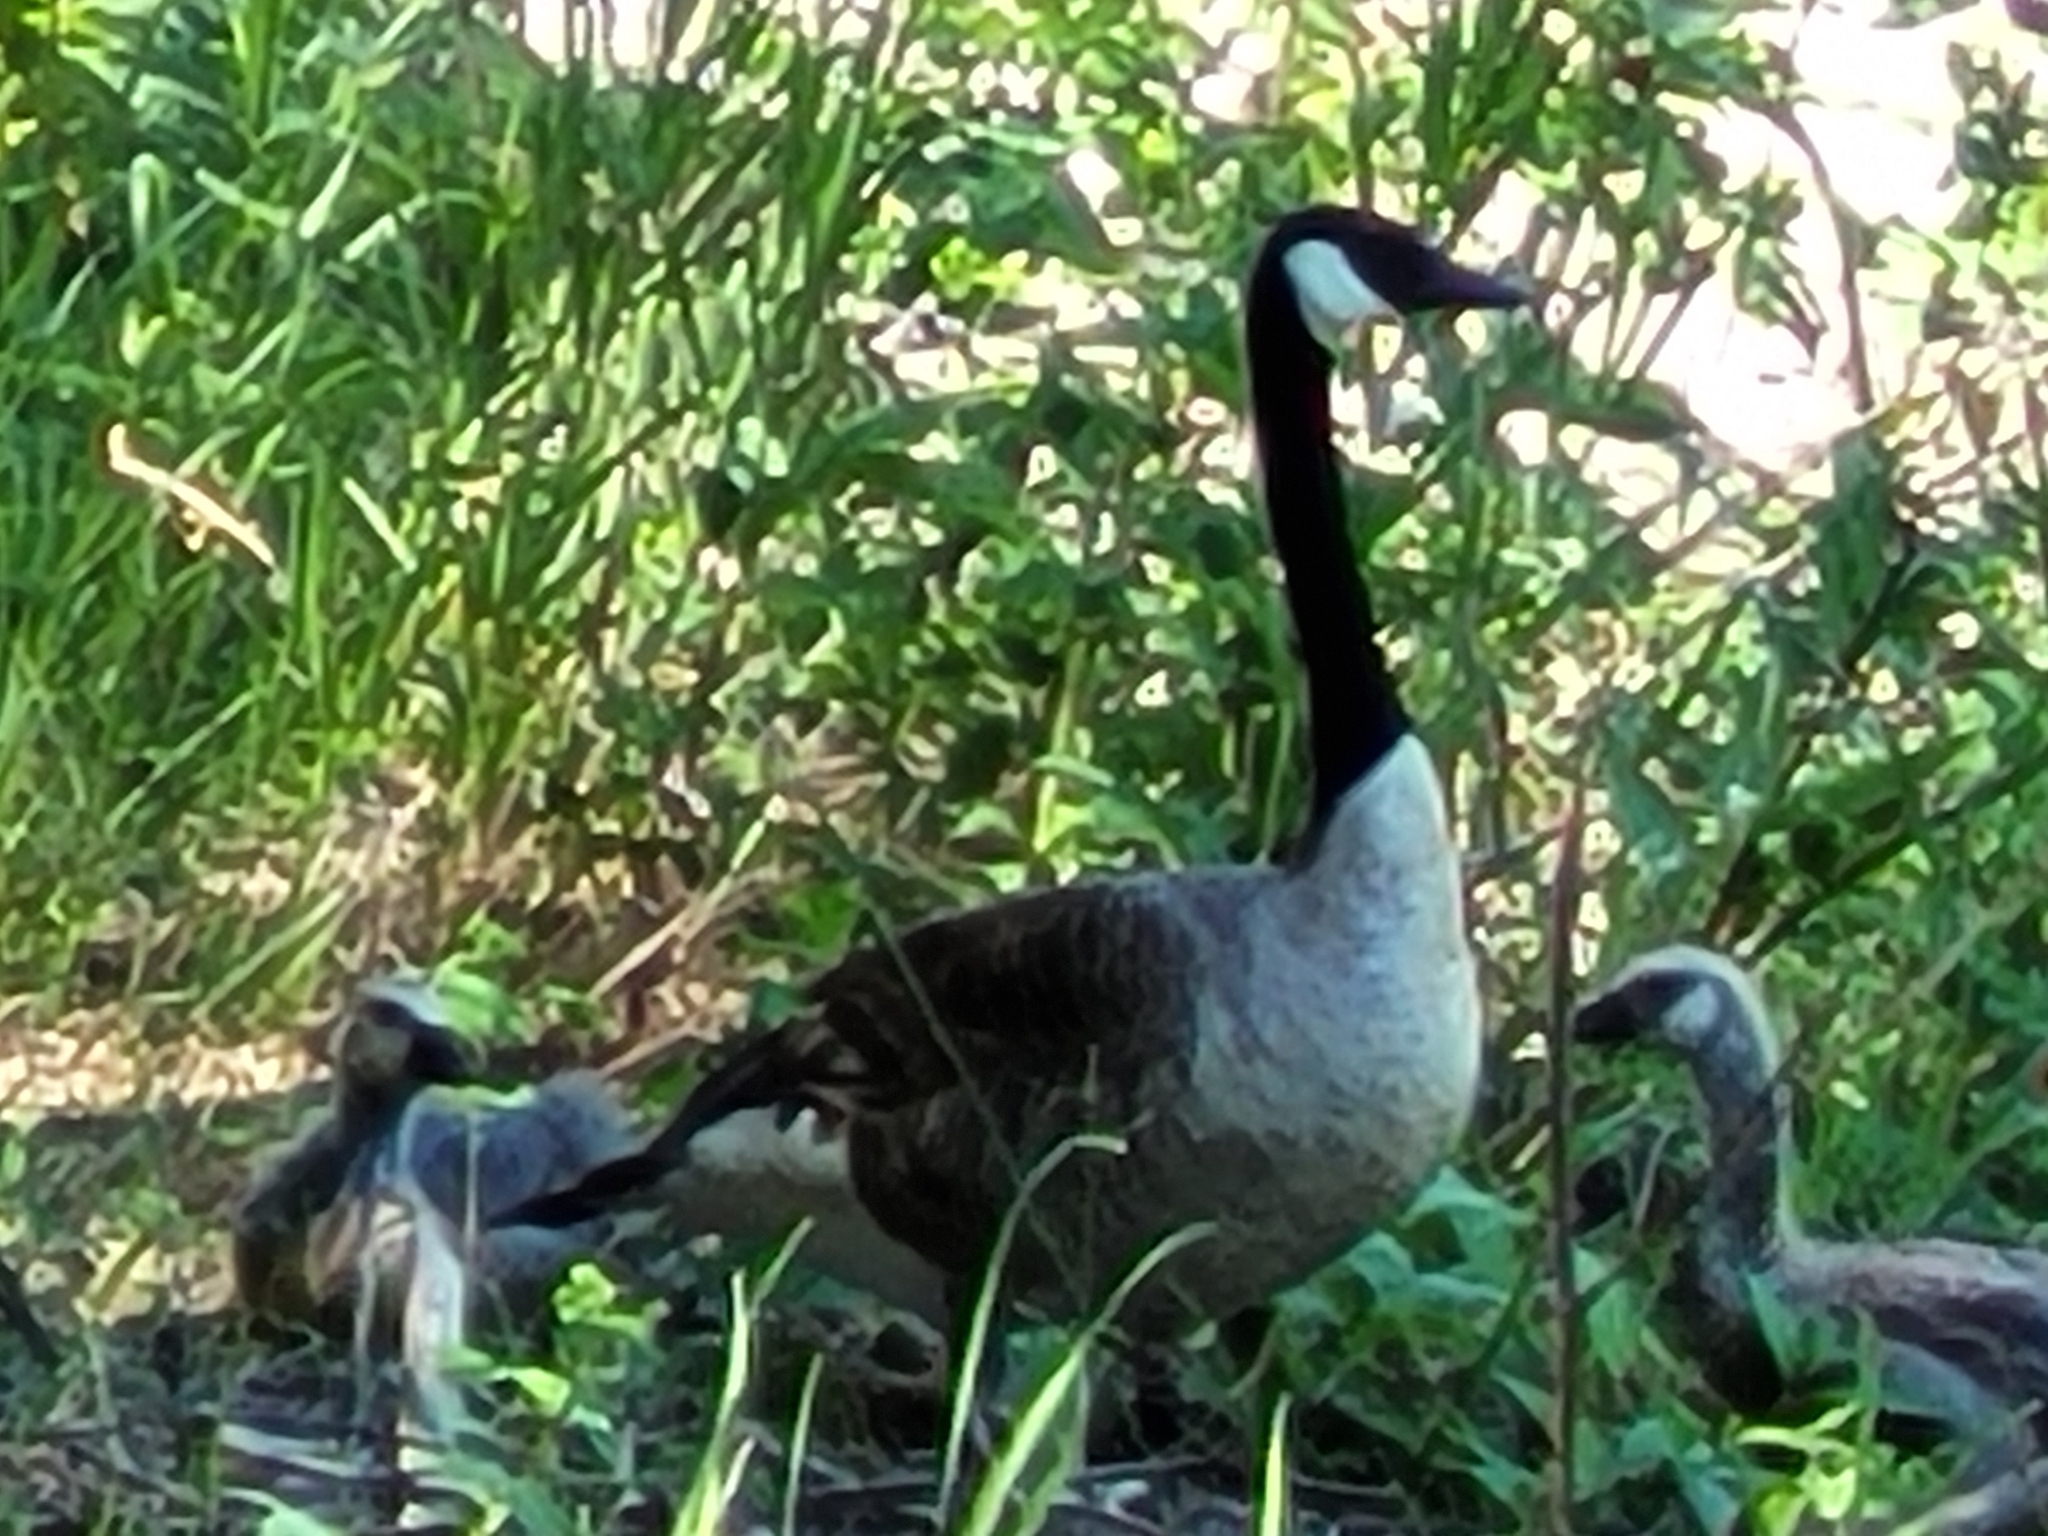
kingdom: Animalia
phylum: Chordata
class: Aves
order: Anseriformes
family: Anatidae
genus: Branta
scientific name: Branta canadensis
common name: Canada goose
